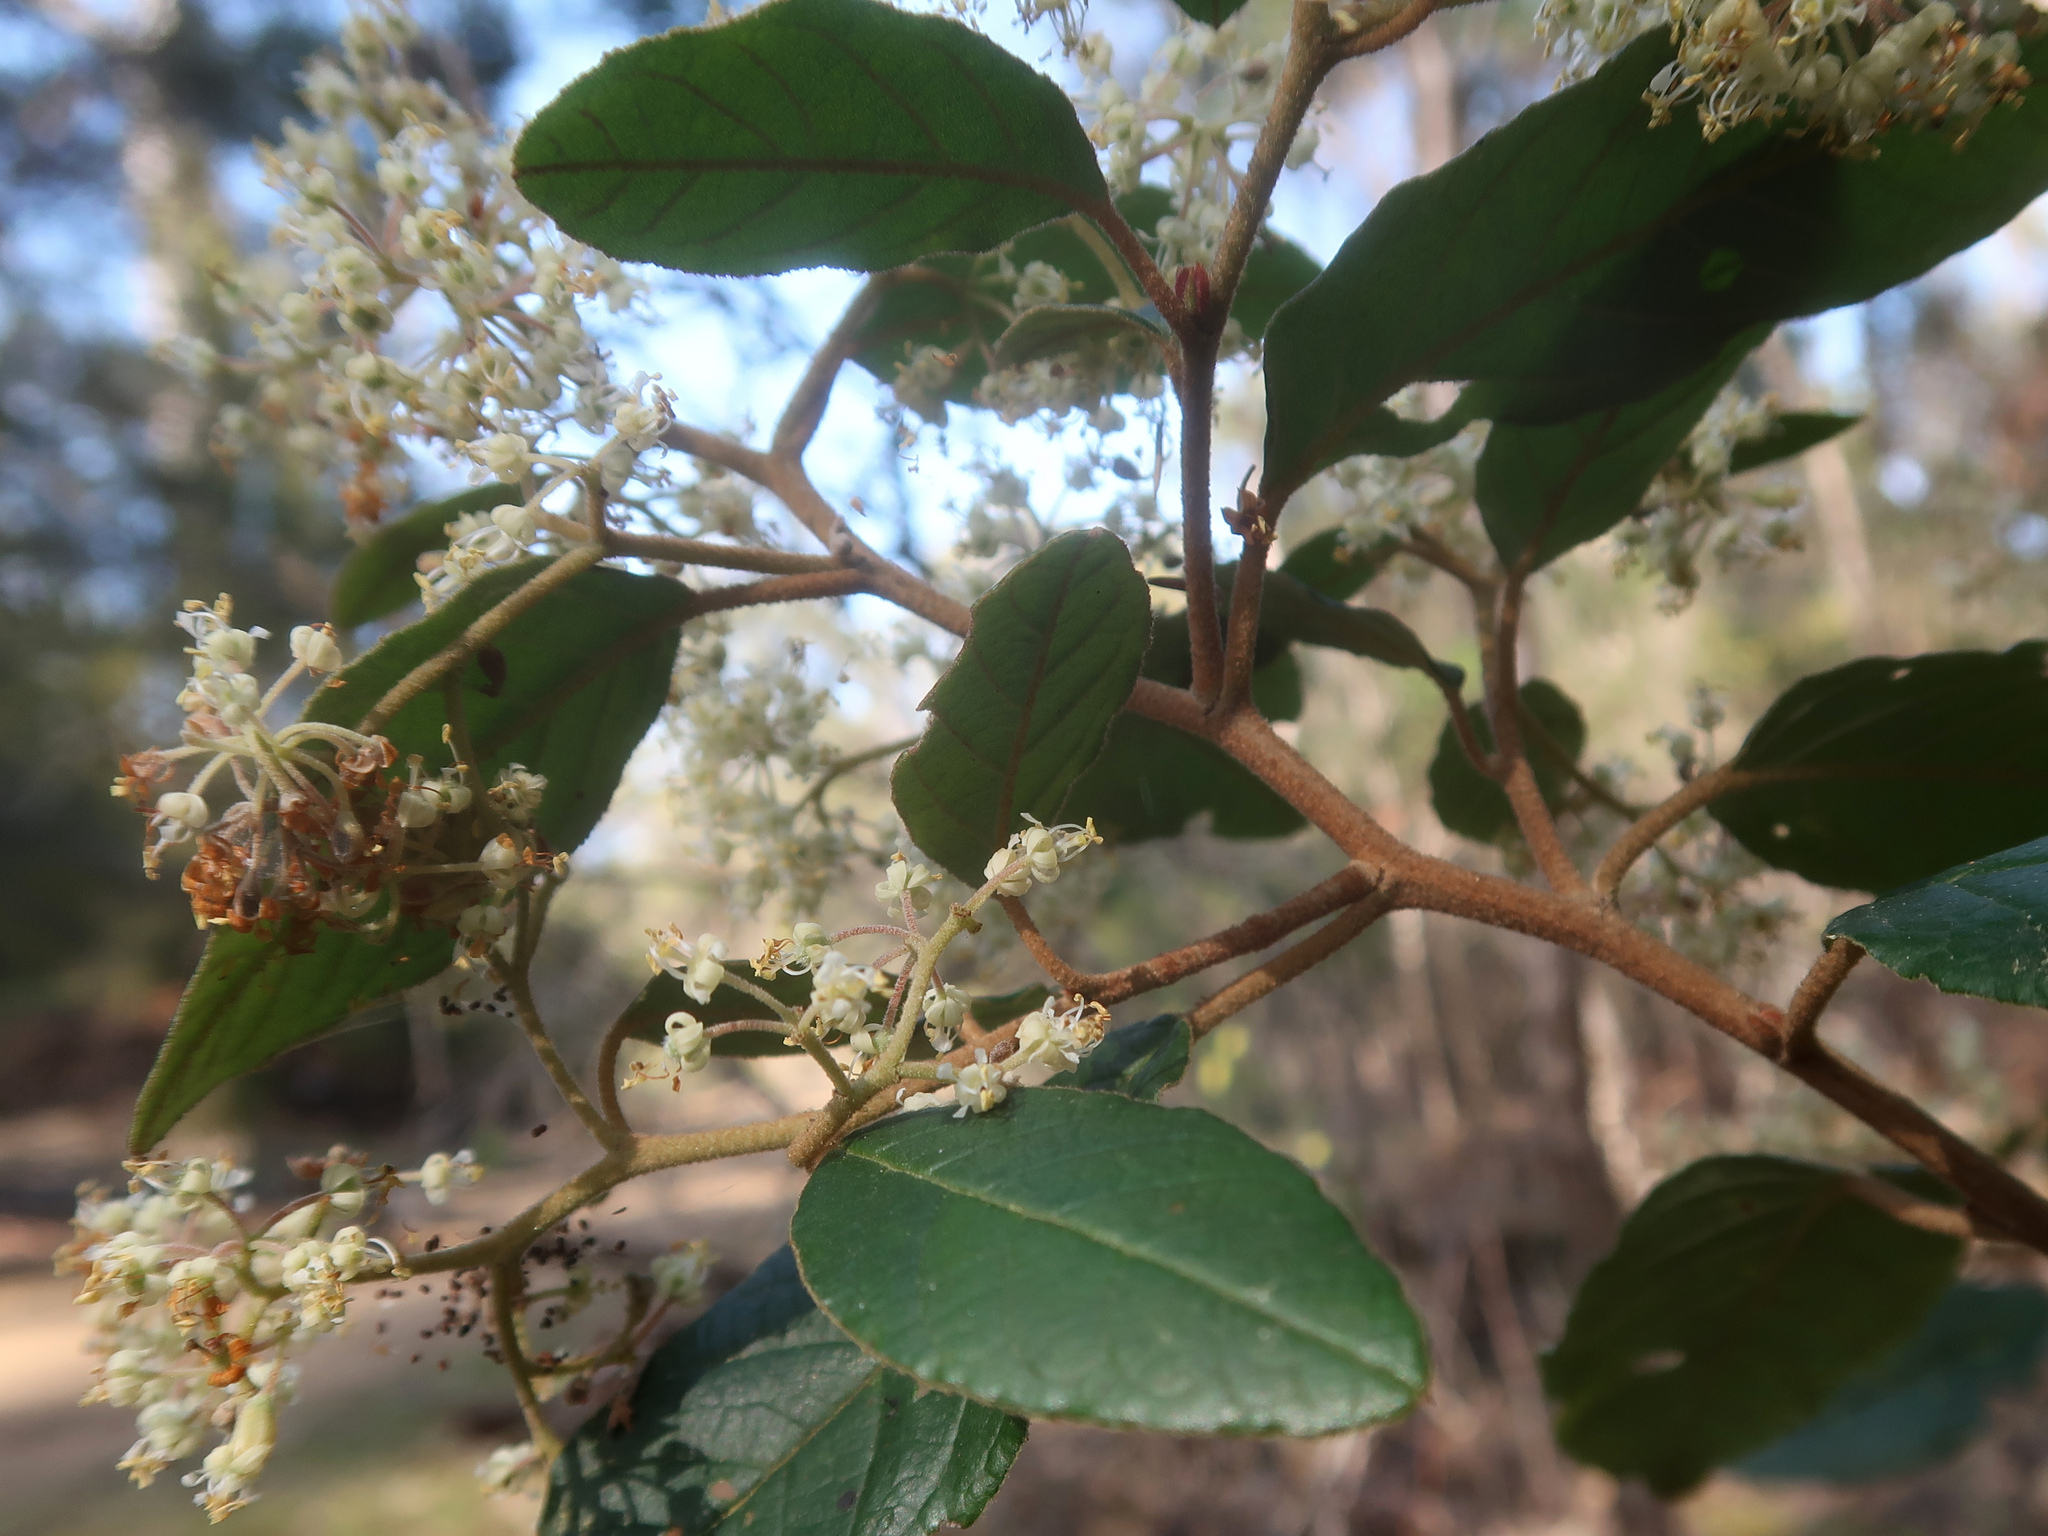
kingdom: Plantae
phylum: Tracheophyta
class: Magnoliopsida
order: Rosales
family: Rhamnaceae
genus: Pomaderris
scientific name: Pomaderris apetala
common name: Hazel pomaderris
